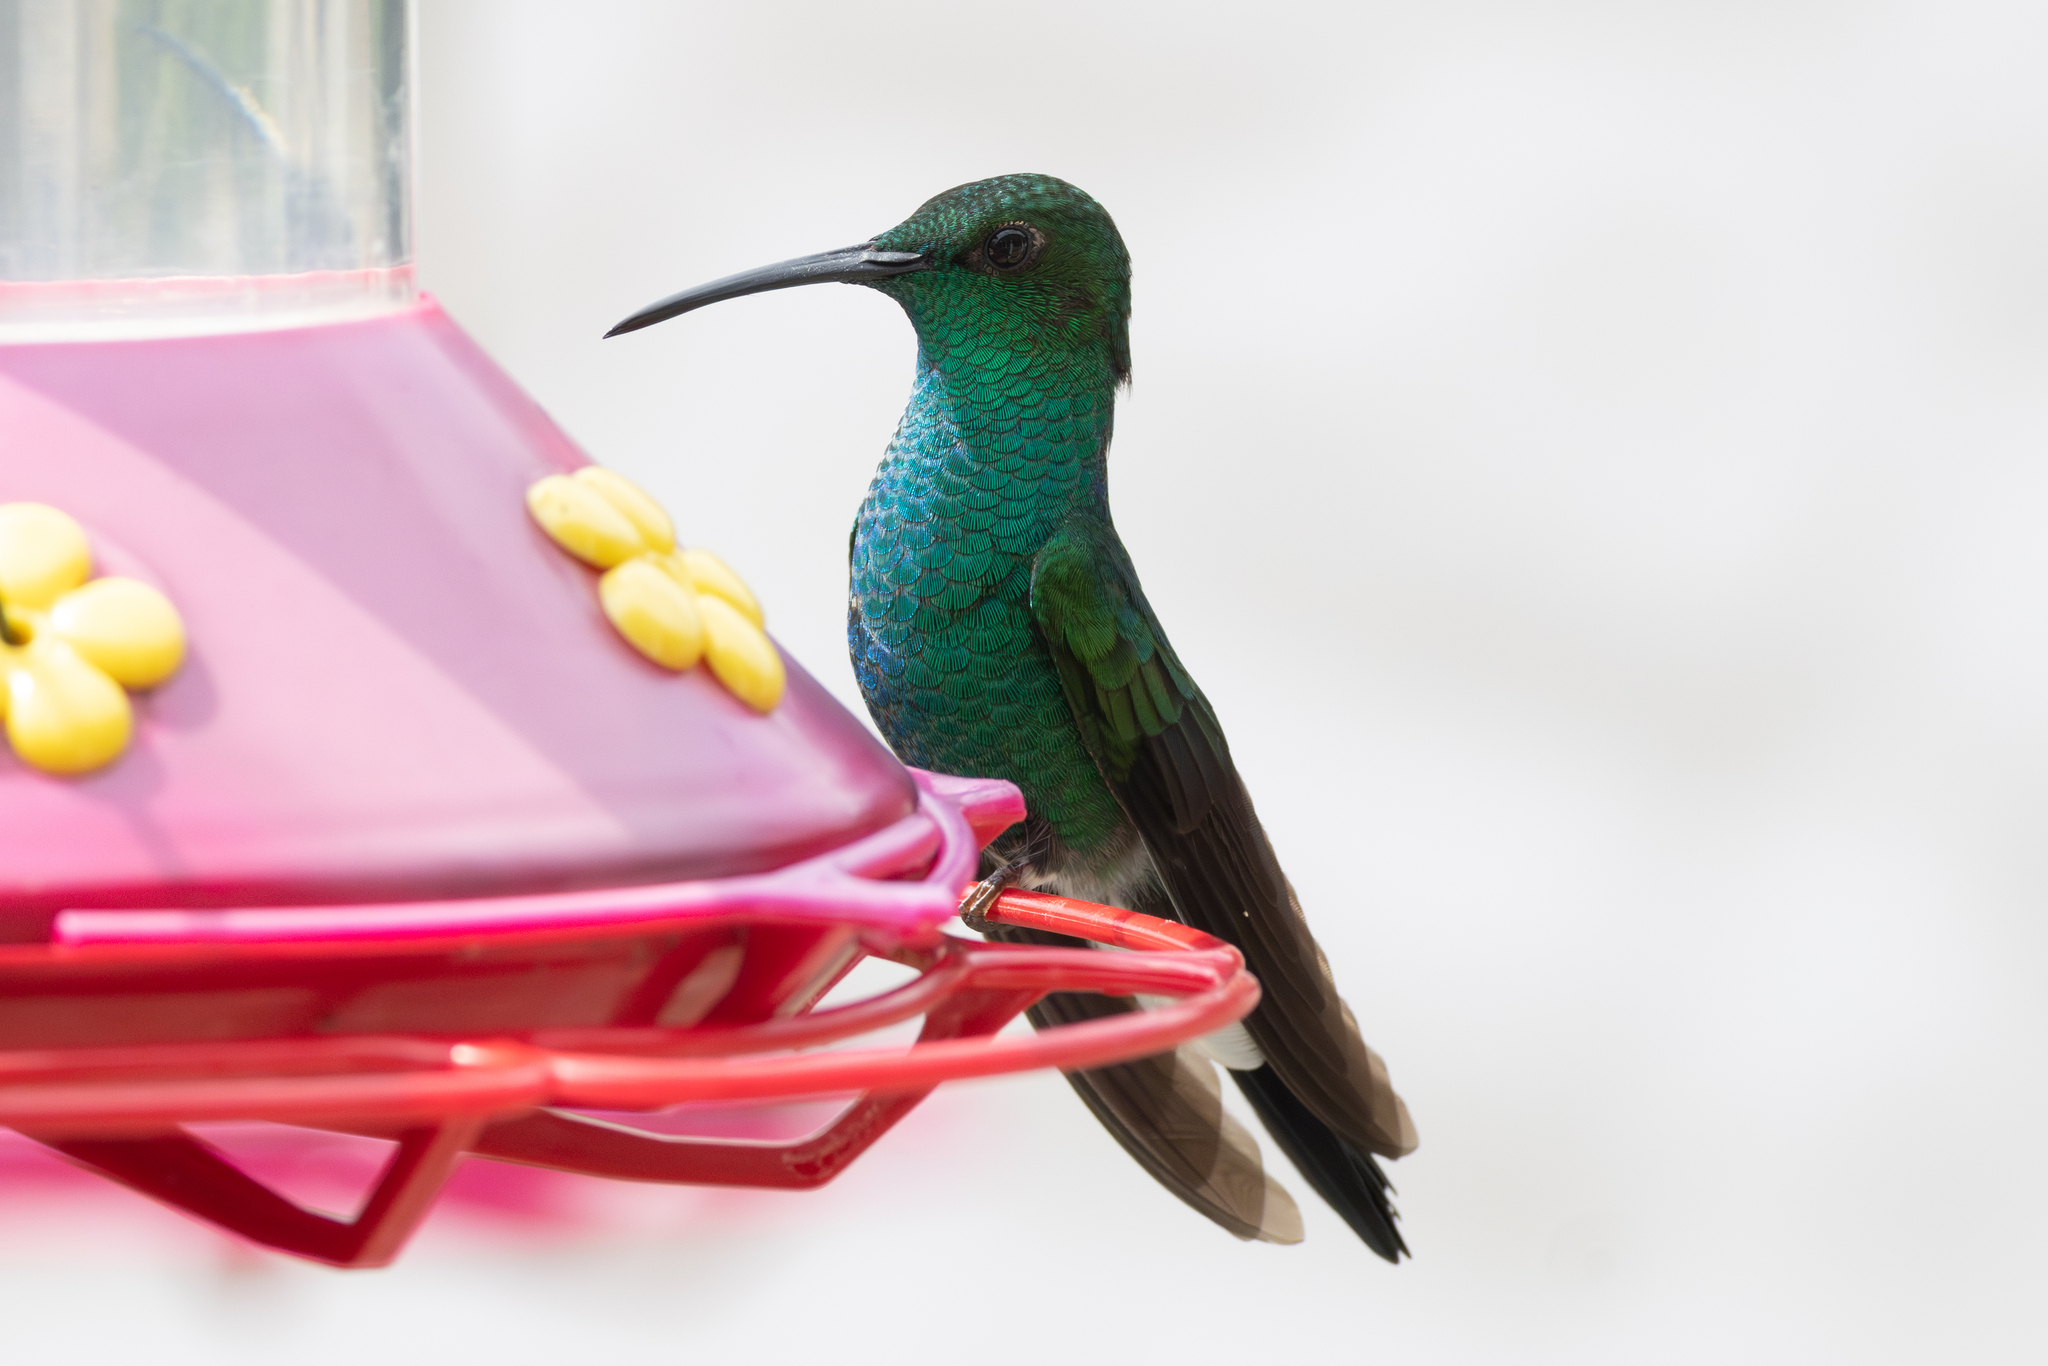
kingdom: Animalia
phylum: Chordata
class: Aves
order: Apodiformes
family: Trochilidae
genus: Chalybura
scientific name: Chalybura buffonii
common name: White-vented plumeleteer
